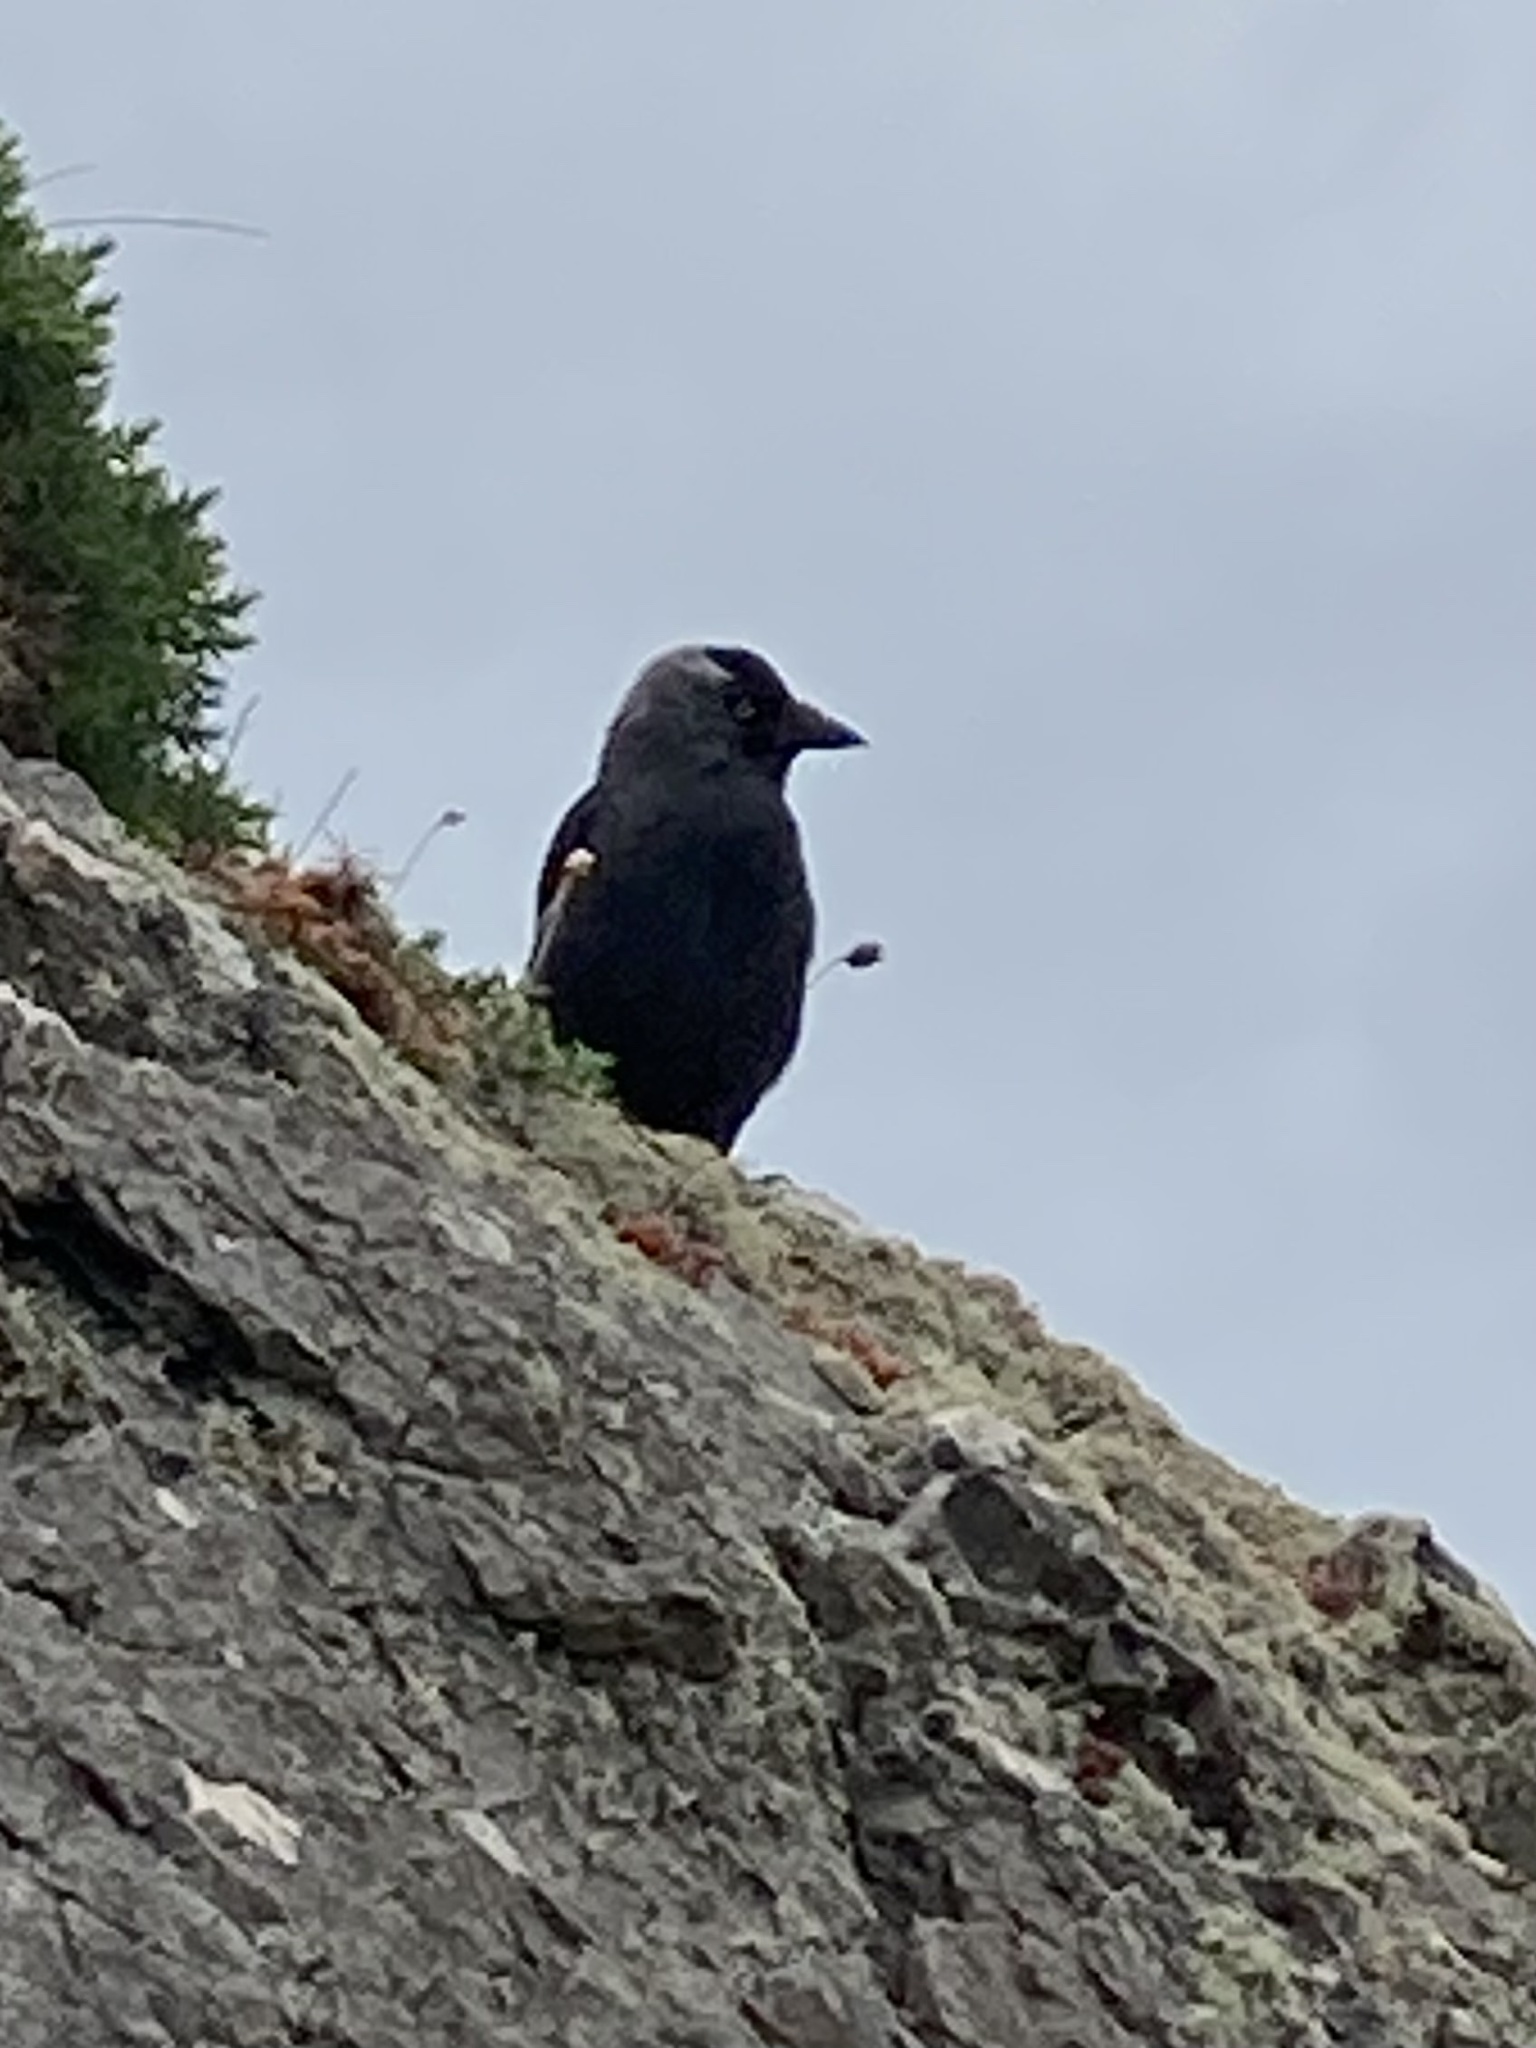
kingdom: Animalia
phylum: Chordata
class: Aves
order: Passeriformes
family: Corvidae
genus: Coloeus
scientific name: Coloeus monedula
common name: Western jackdaw
